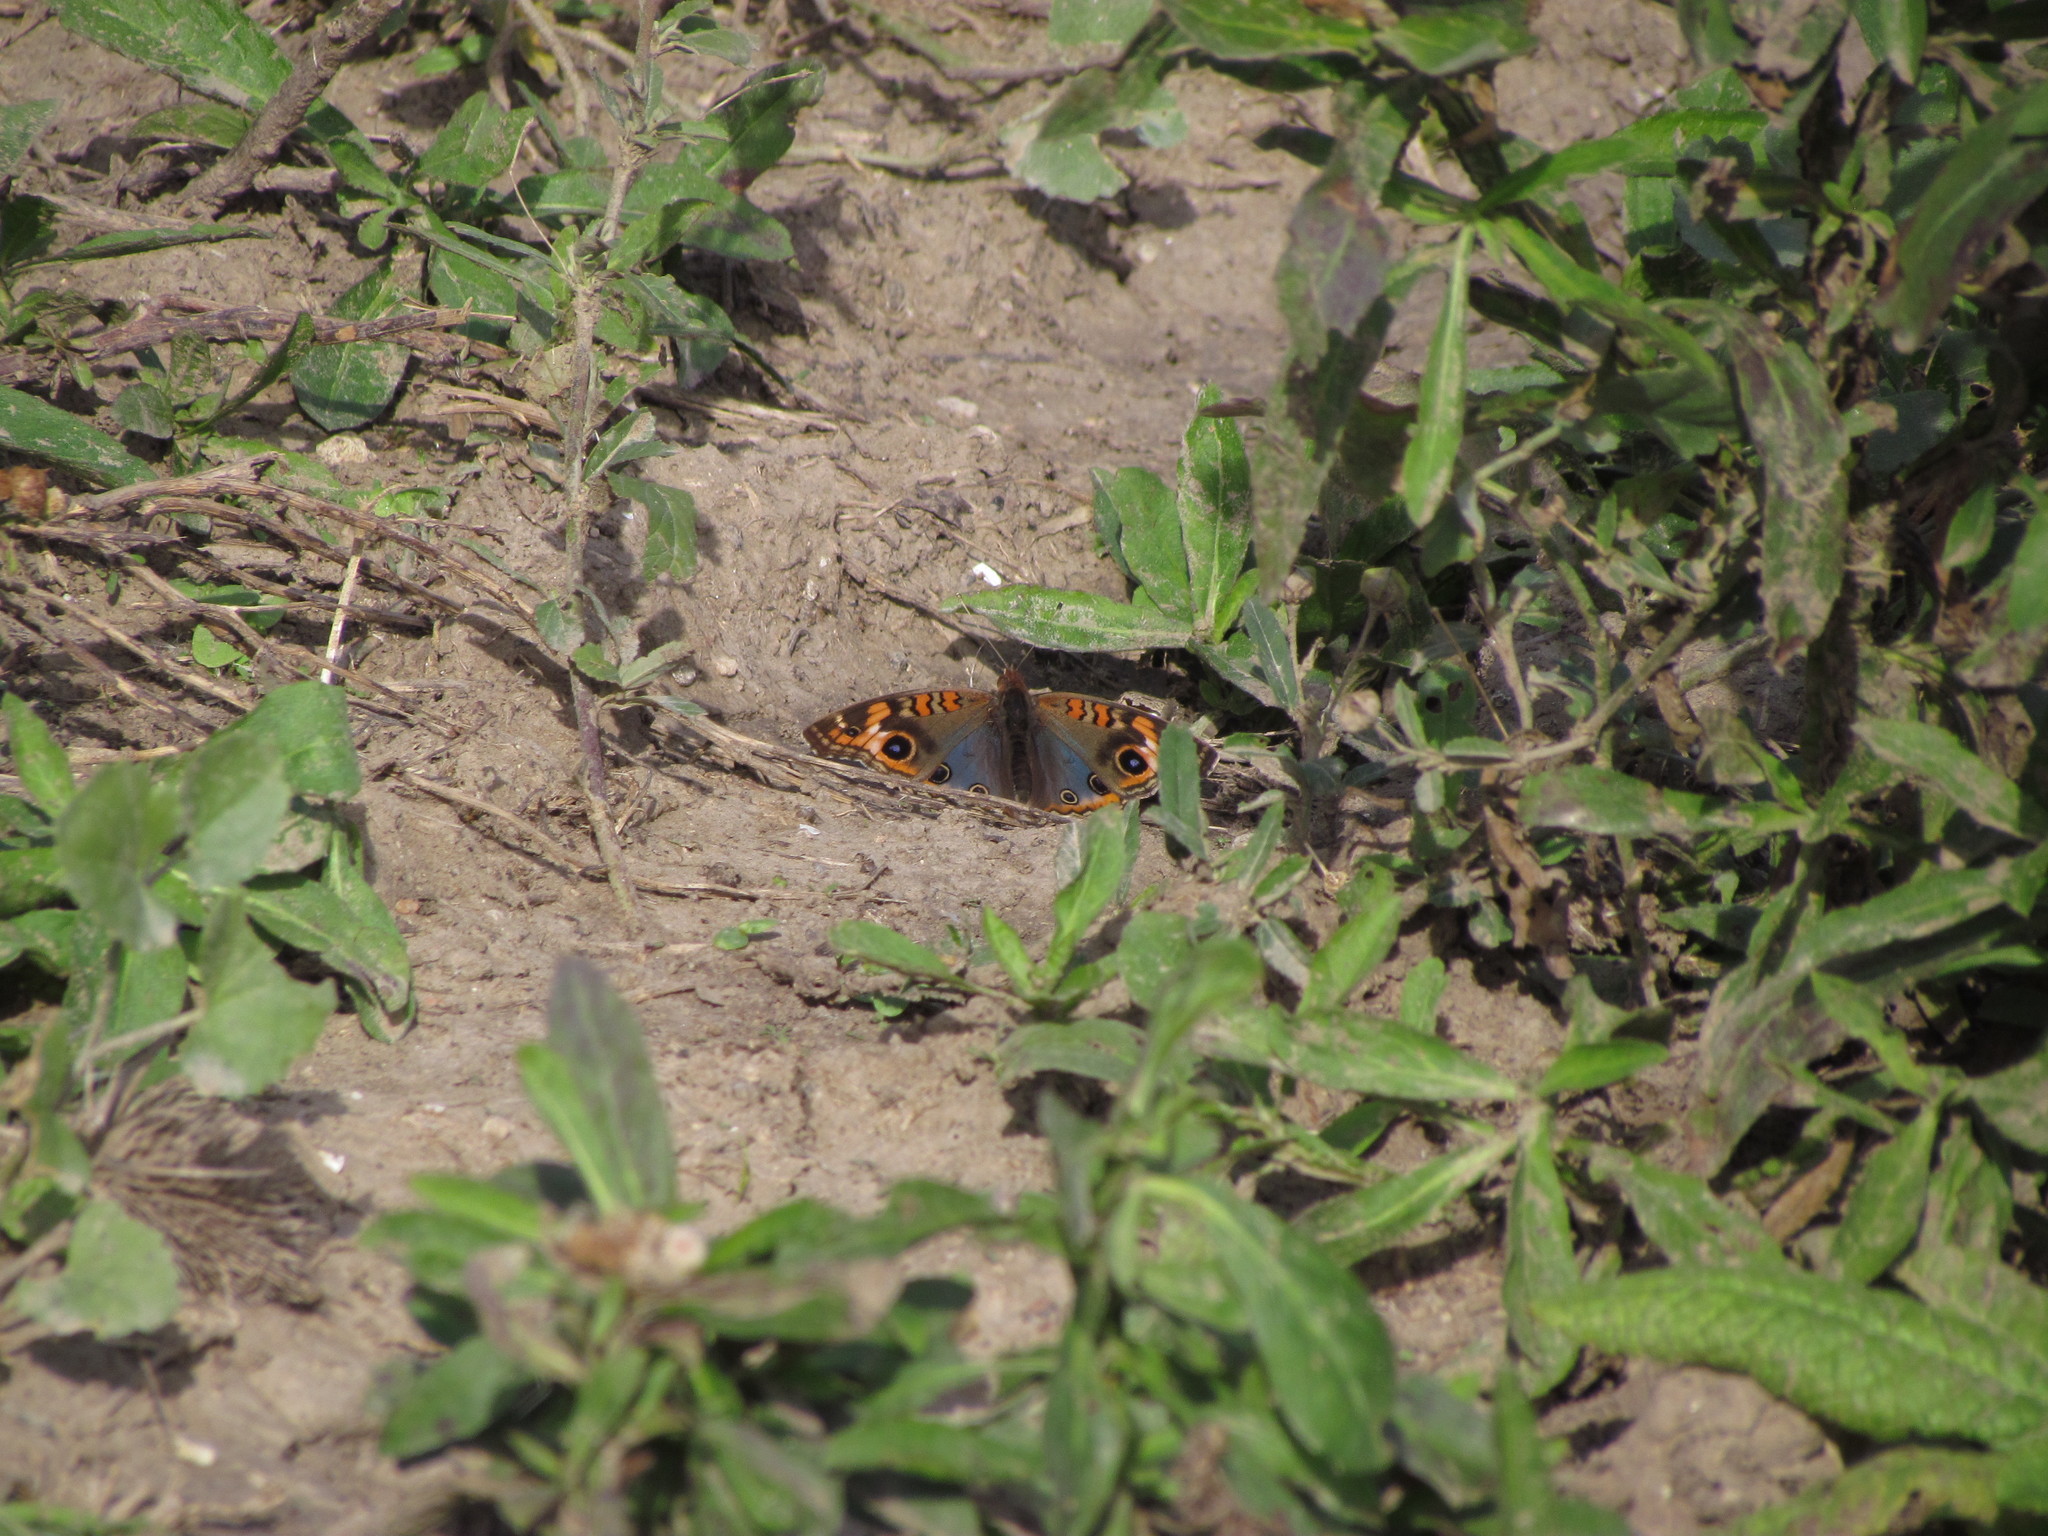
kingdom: Animalia
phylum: Arthropoda
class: Insecta
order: Lepidoptera
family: Nymphalidae
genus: Junonia
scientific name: Junonia lavinia
